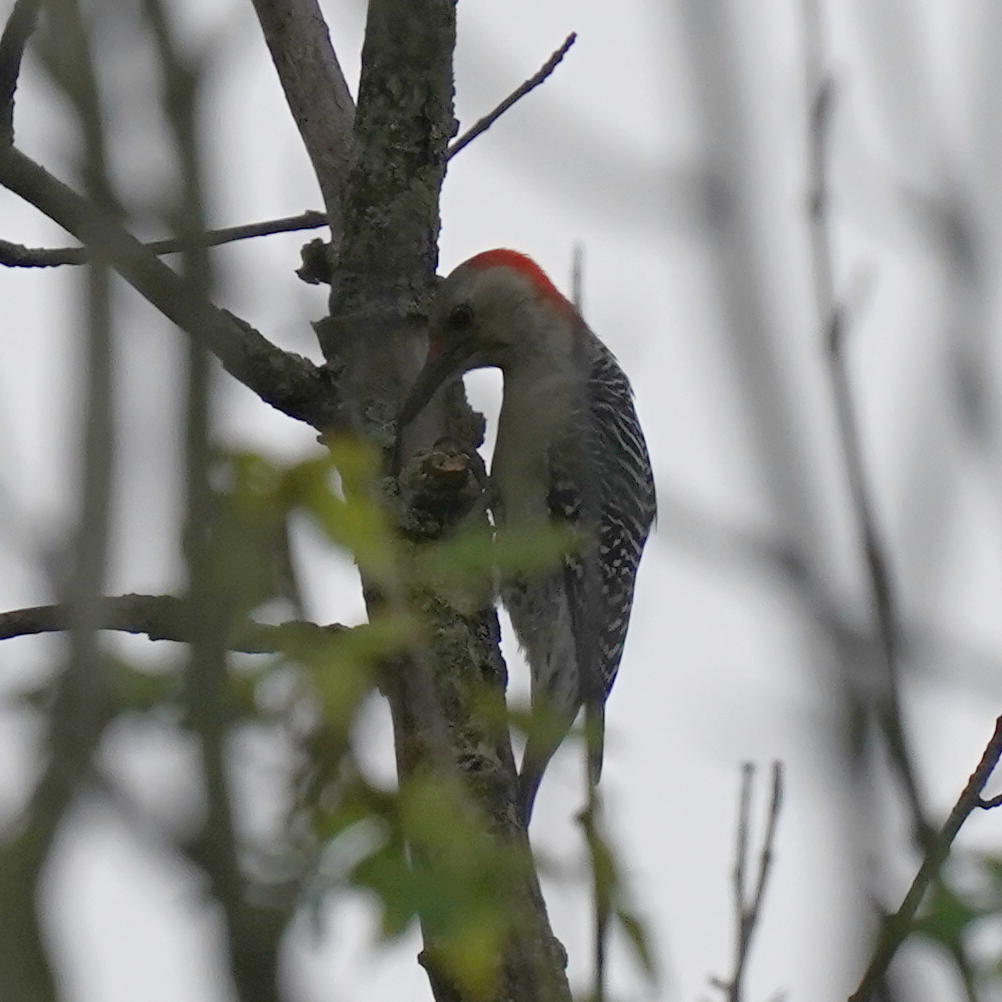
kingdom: Animalia
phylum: Chordata
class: Aves
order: Piciformes
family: Picidae
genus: Melanerpes
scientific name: Melanerpes carolinus
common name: Red-bellied woodpecker
